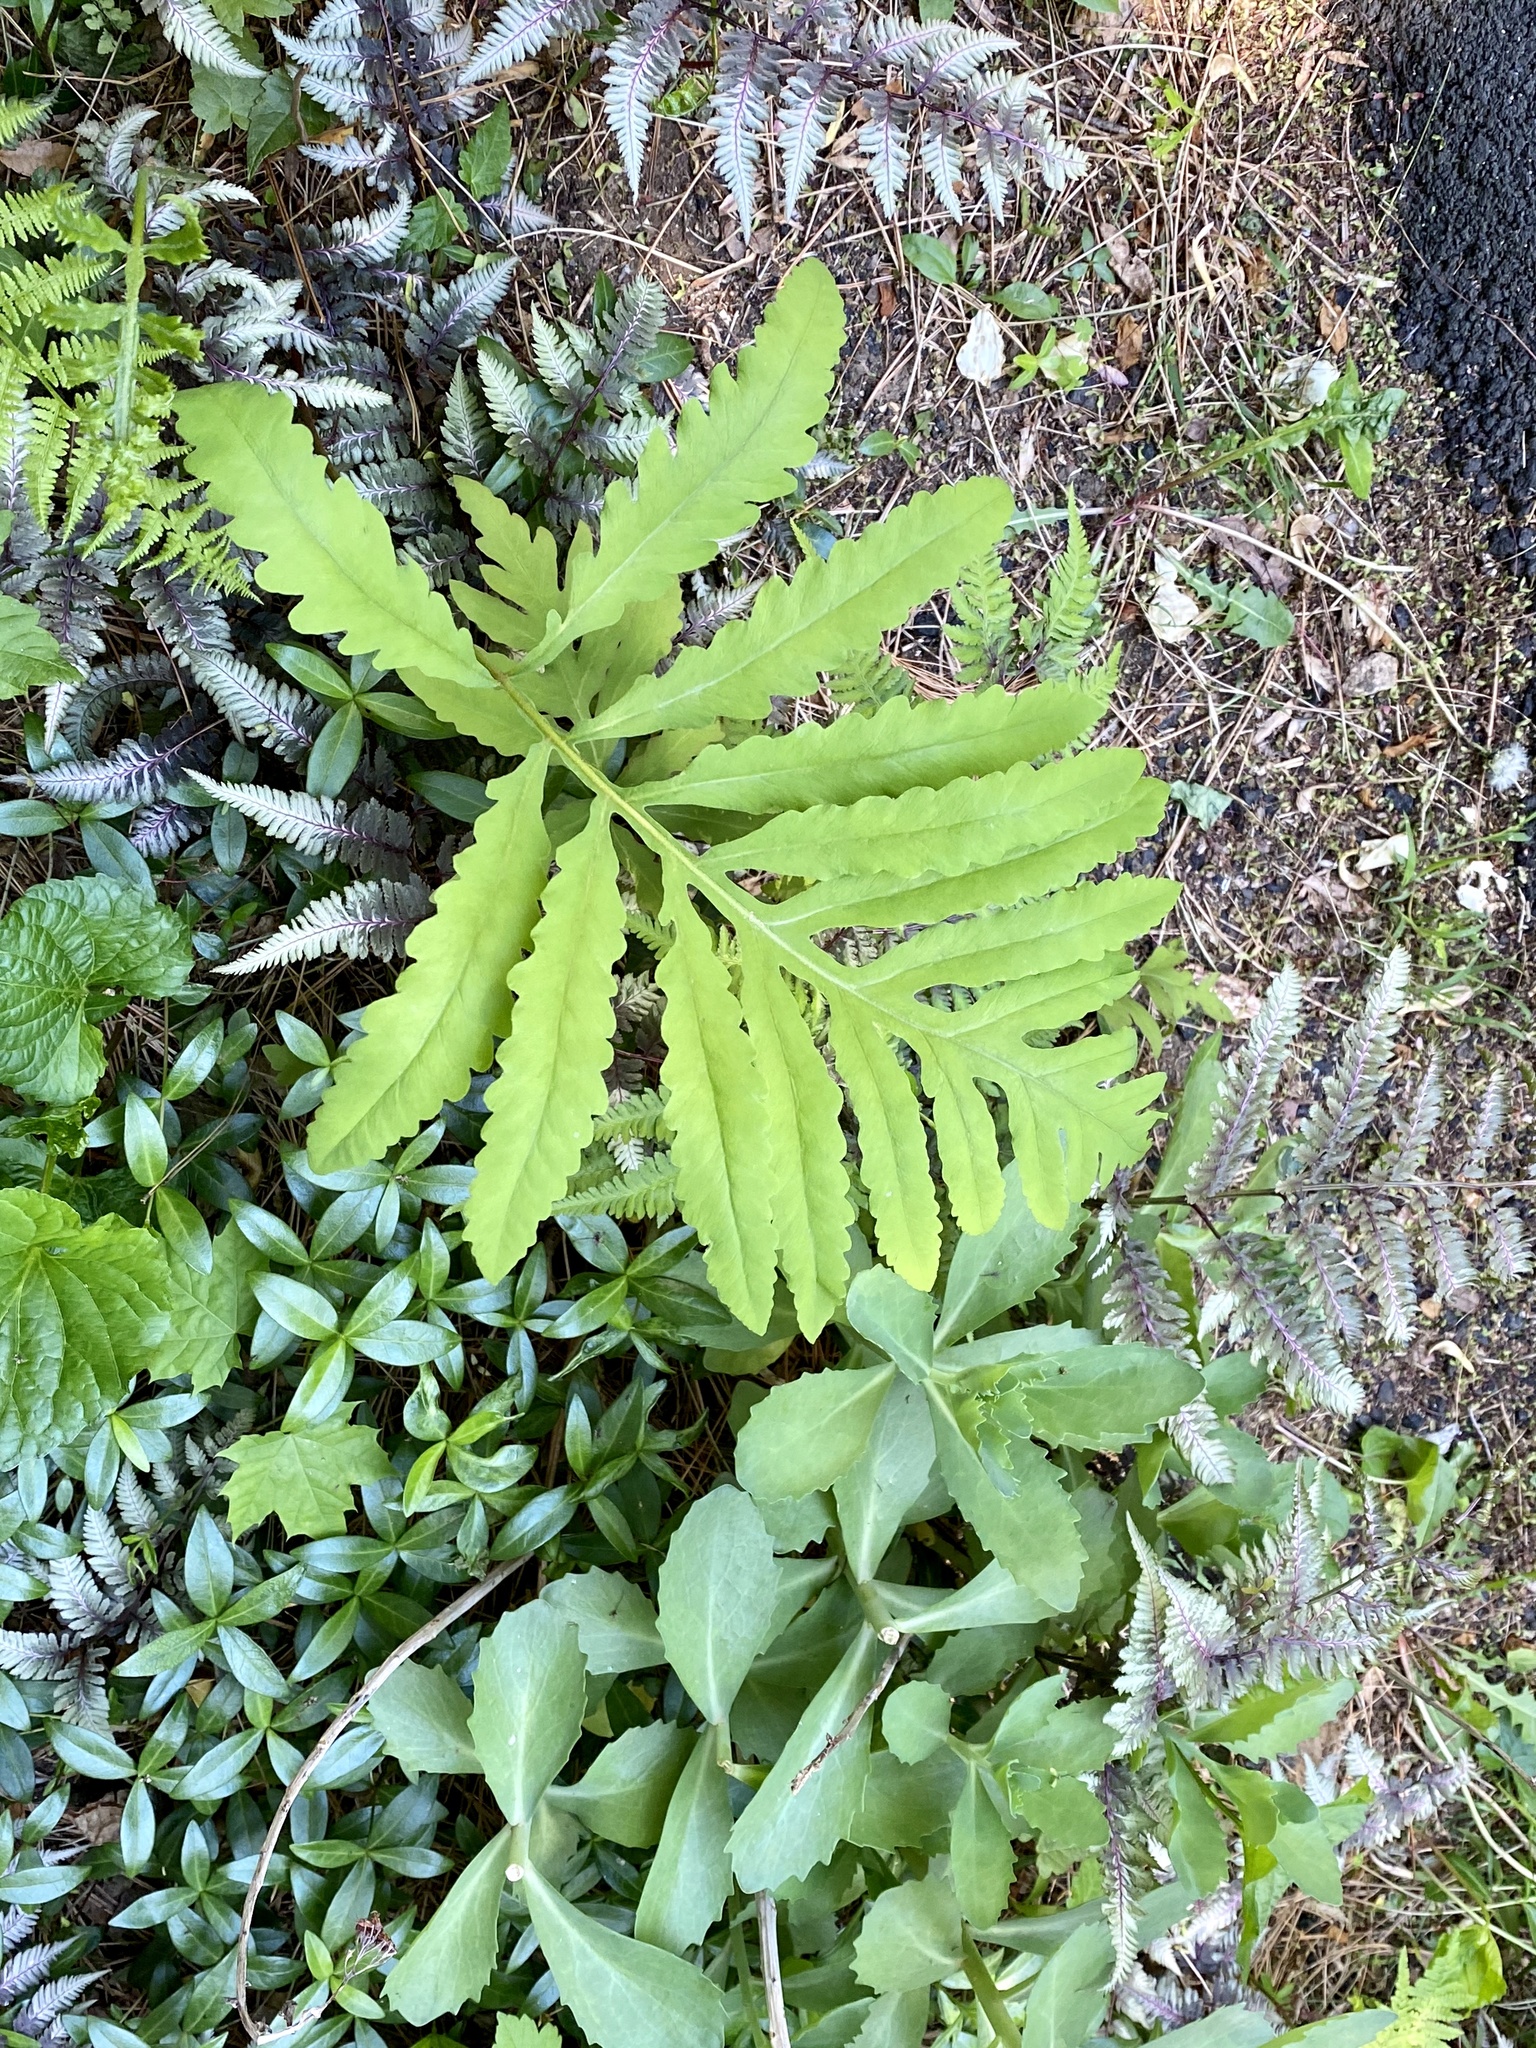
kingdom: Plantae
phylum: Tracheophyta
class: Polypodiopsida
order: Polypodiales
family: Onocleaceae
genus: Onoclea
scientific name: Onoclea sensibilis
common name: Sensitive fern
